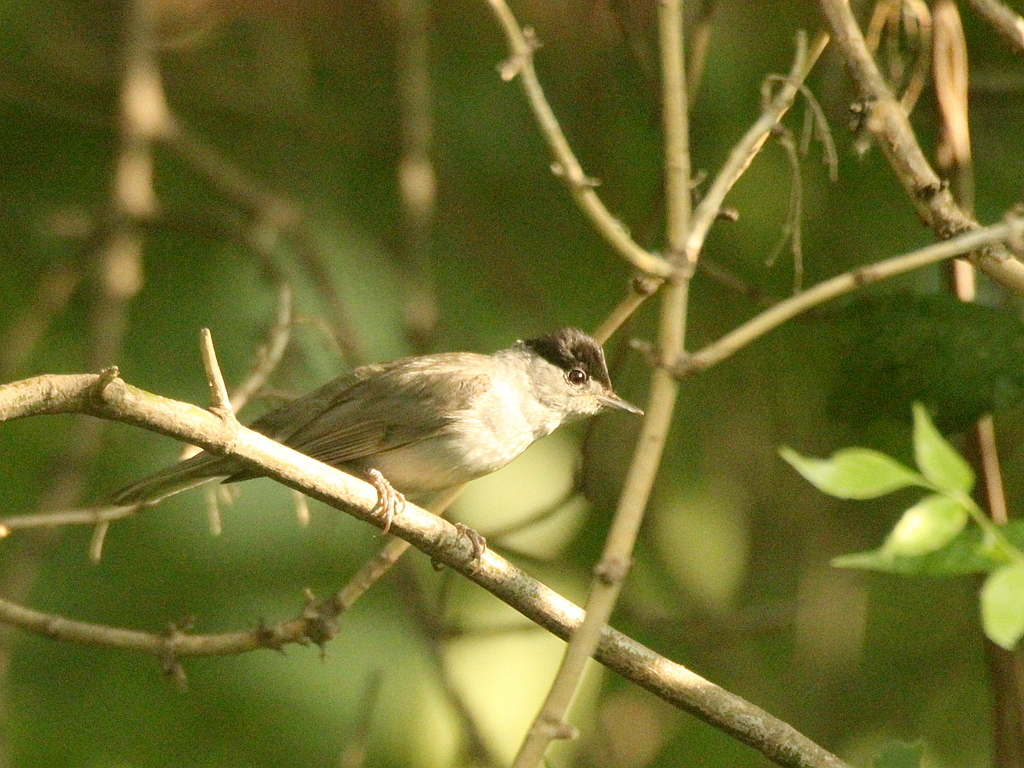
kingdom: Animalia
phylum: Chordata
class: Aves
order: Passeriformes
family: Sylviidae
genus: Sylvia
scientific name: Sylvia atricapilla
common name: Eurasian blackcap
